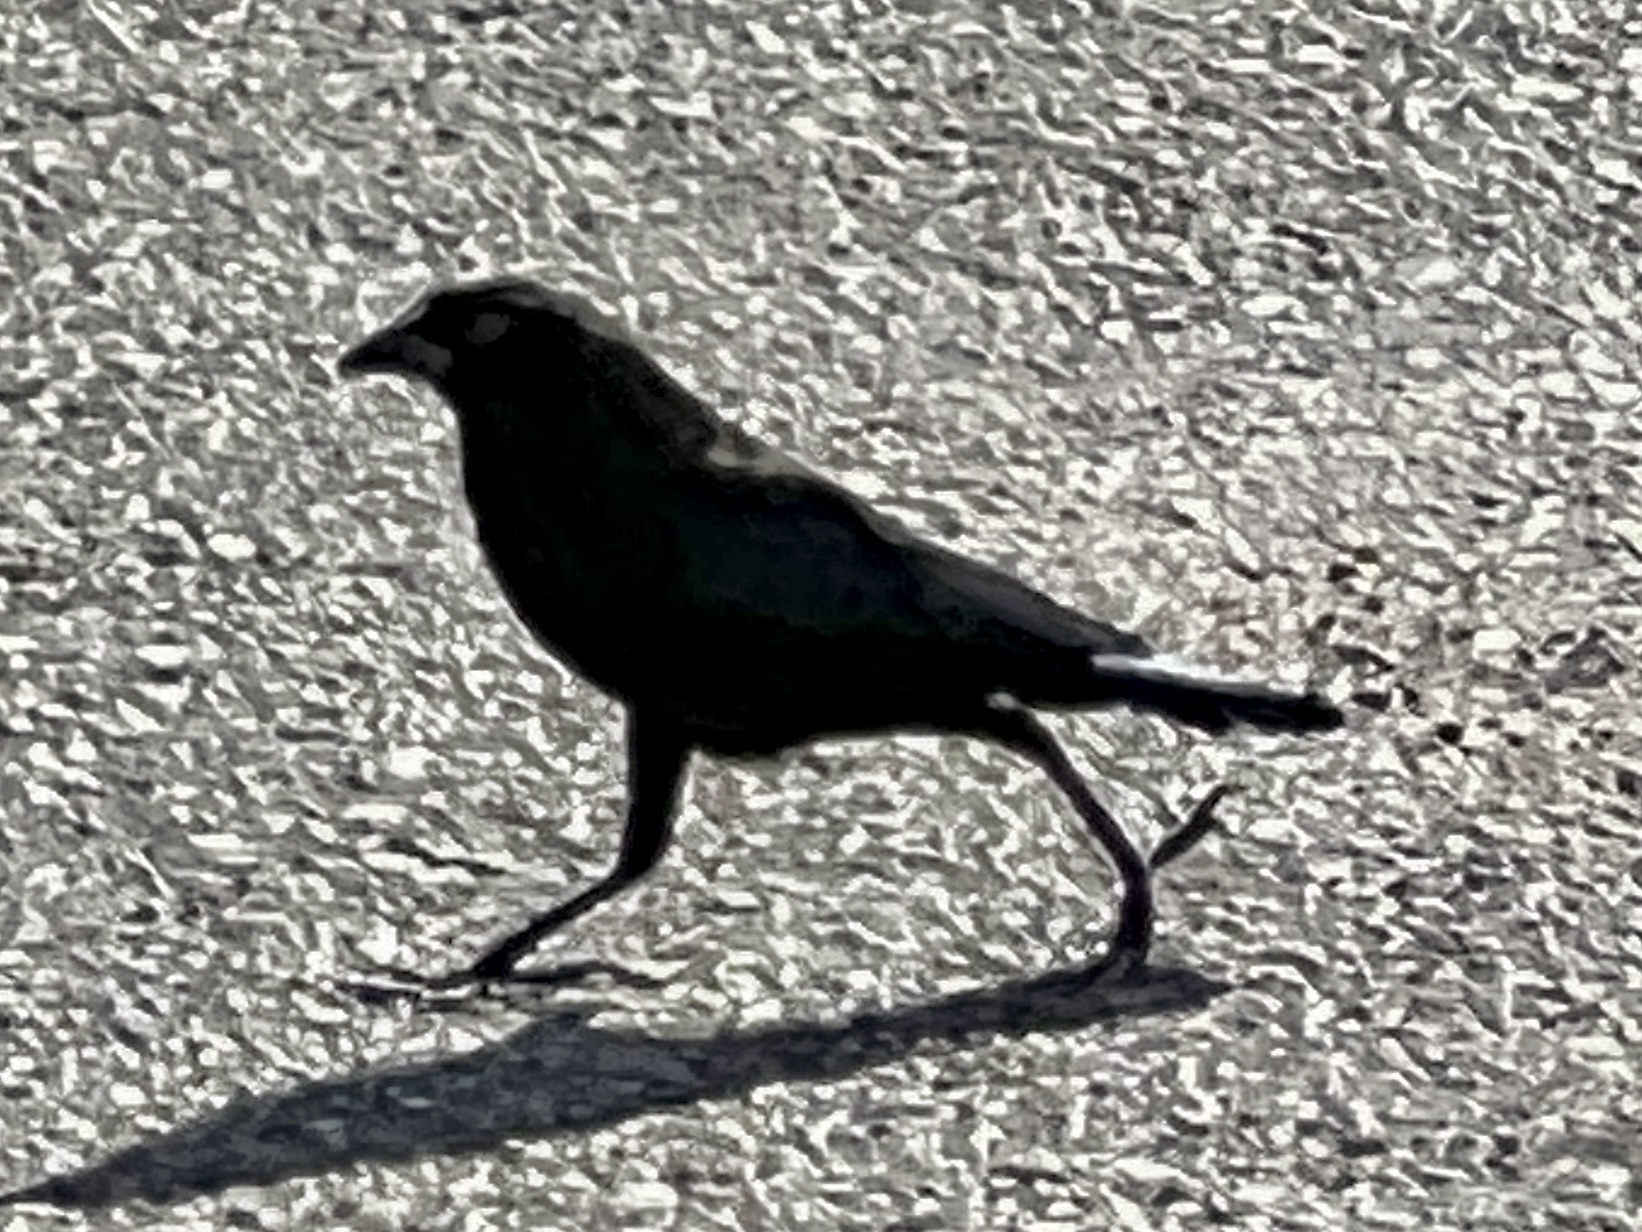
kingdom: Animalia
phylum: Chordata
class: Aves
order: Passeriformes
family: Icteridae
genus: Molothrus
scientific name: Molothrus aeneus
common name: Bronzed cowbird
